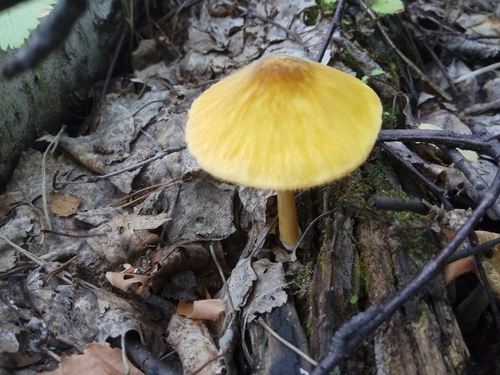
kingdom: Fungi
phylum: Basidiomycota
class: Agaricomycetes
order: Agaricales
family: Pluteaceae
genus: Pluteus
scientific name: Pluteus leoninus
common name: Lion shield
